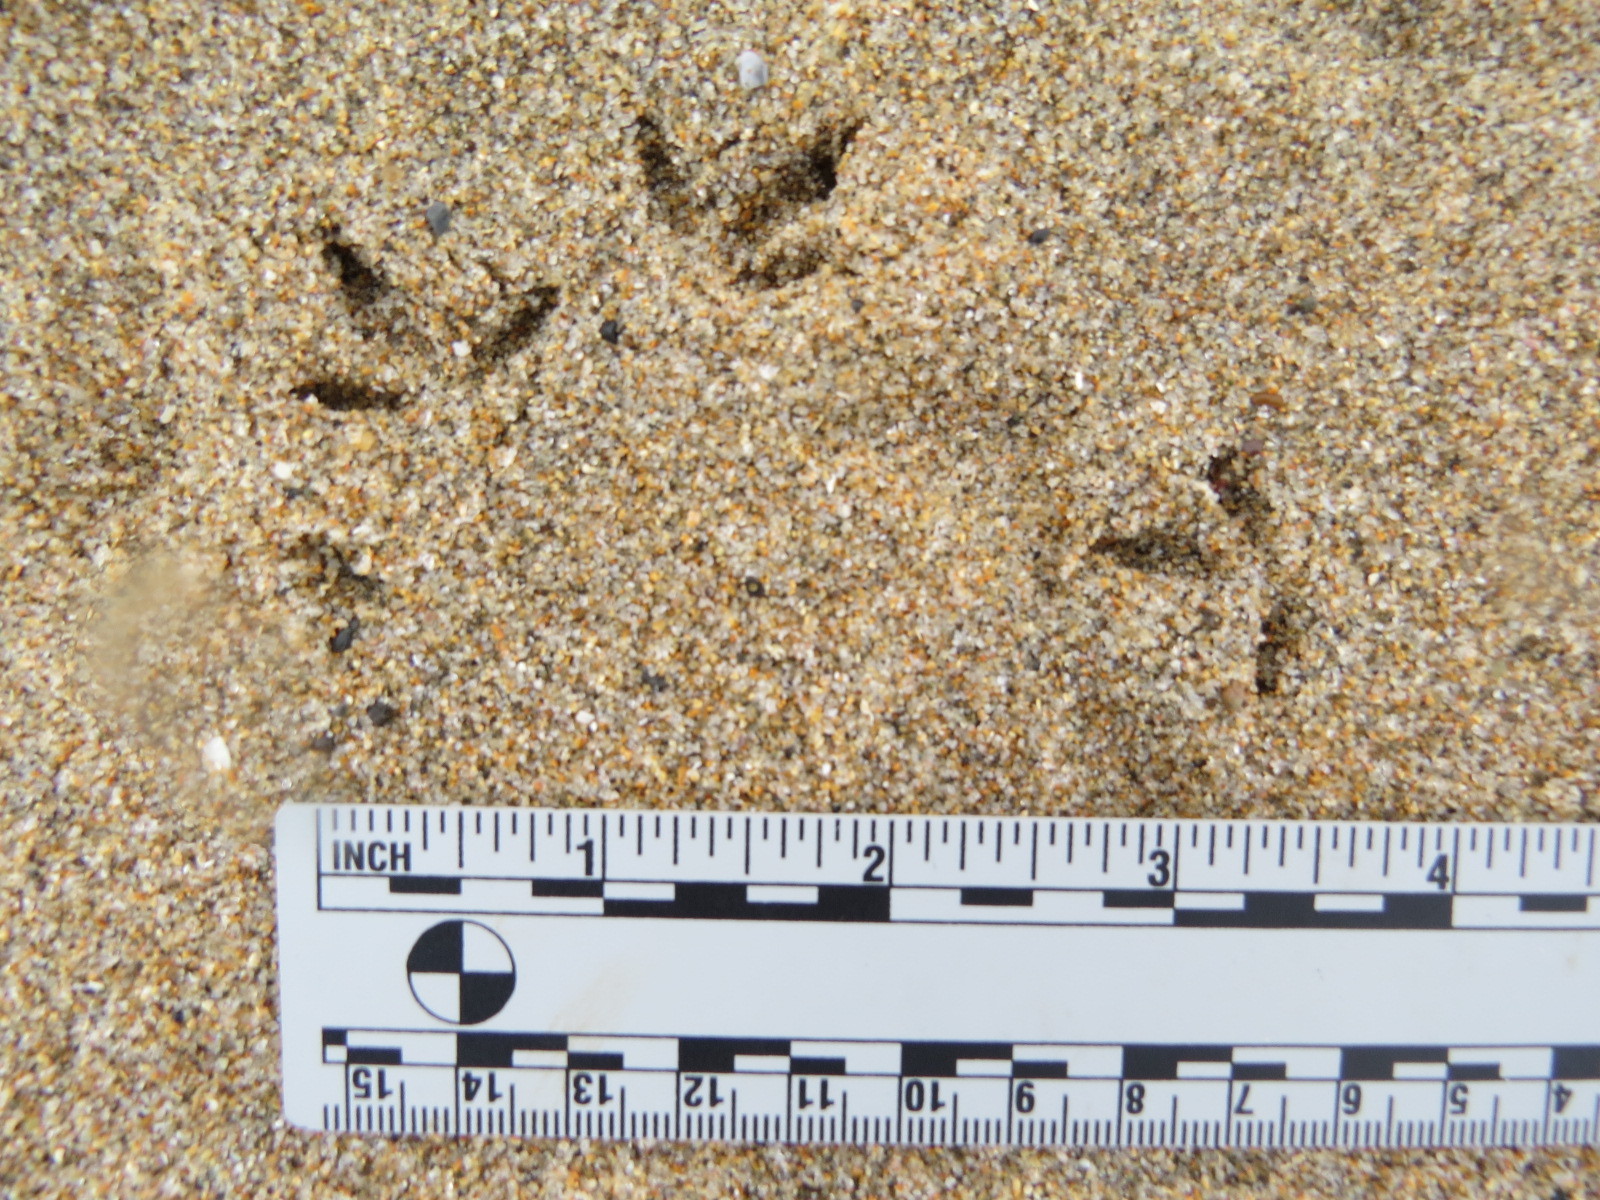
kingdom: Animalia
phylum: Chordata
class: Aves
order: Charadriiformes
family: Charadriidae
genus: Anarhynchus
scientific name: Anarhynchus
